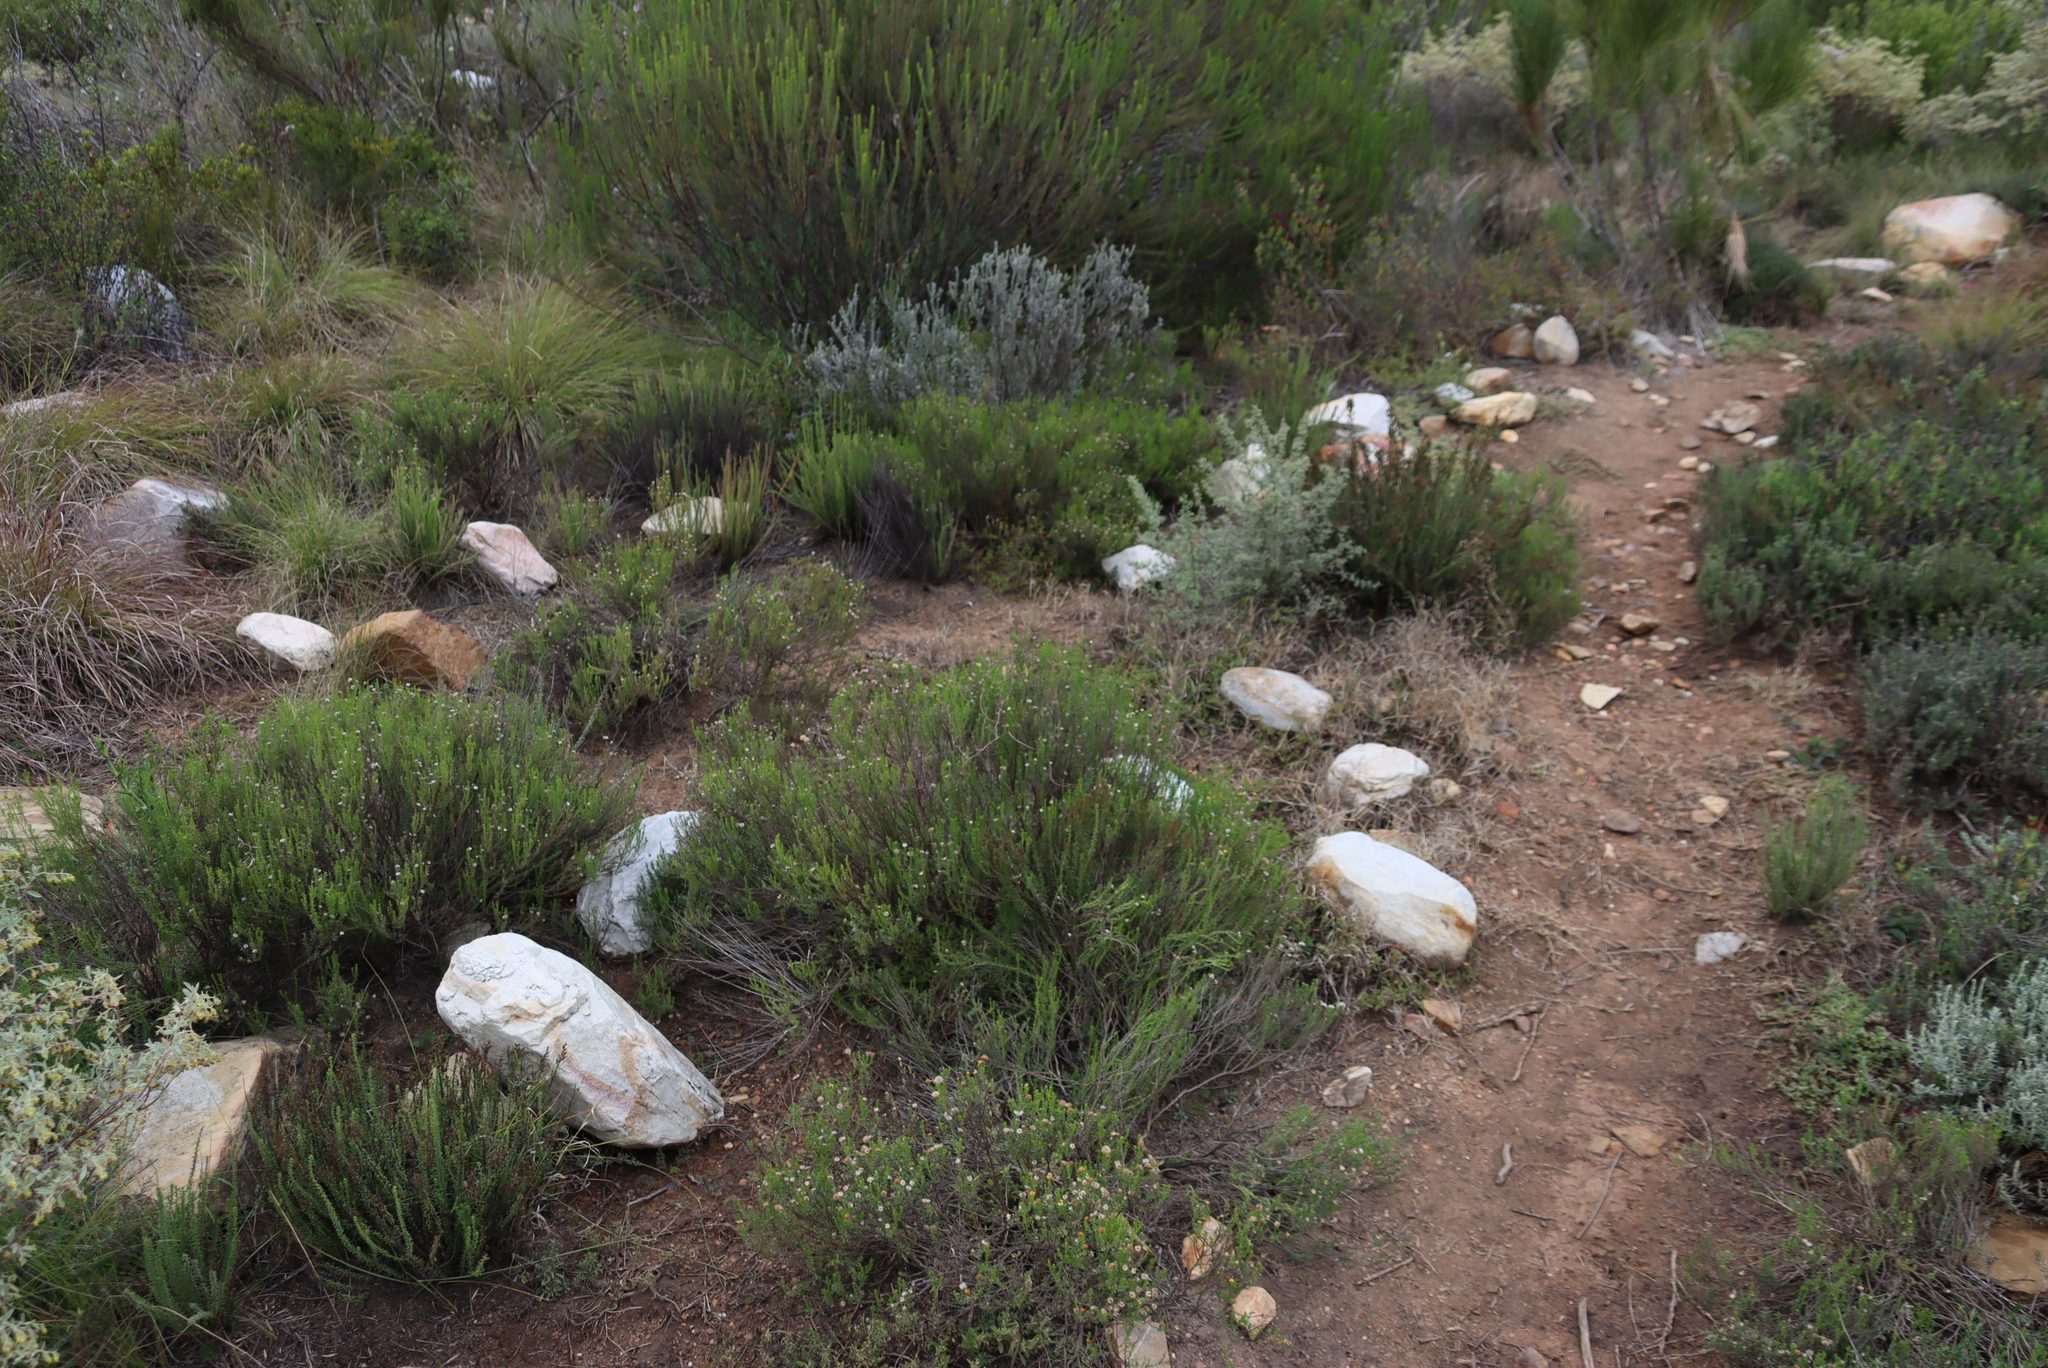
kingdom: Plantae
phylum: Tracheophyta
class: Magnoliopsida
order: Asterales
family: Asteraceae
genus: Chrysocoma
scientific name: Chrysocoma ciliata
